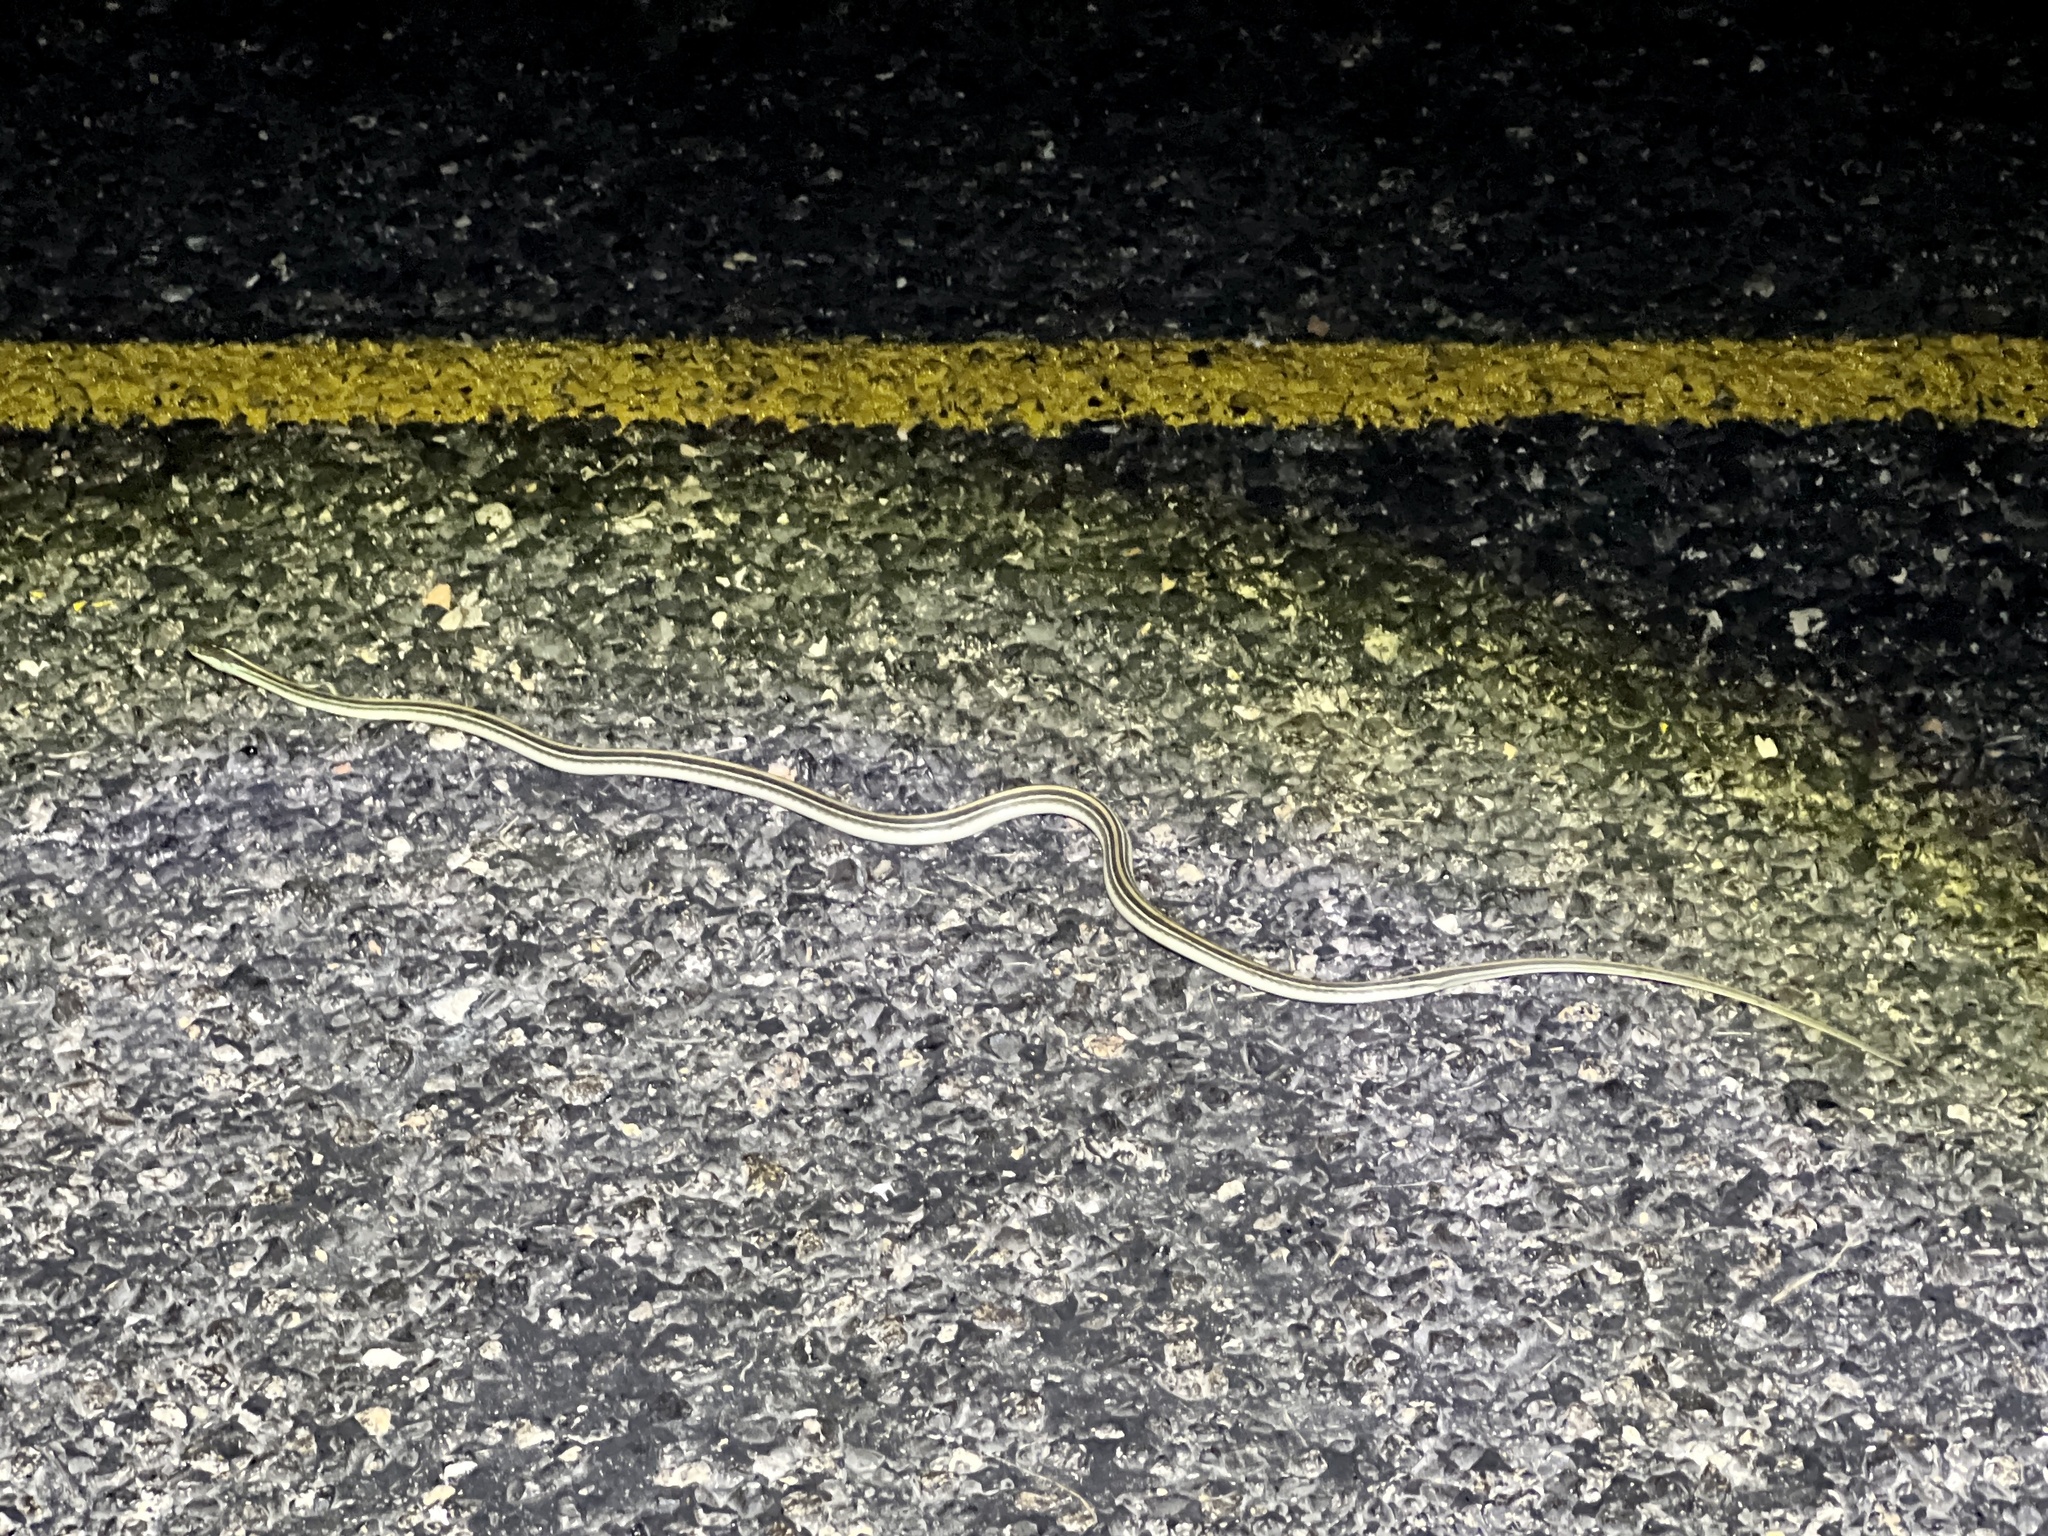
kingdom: Animalia
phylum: Chordata
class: Squamata
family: Colubridae
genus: Thamnophis
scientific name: Thamnophis proximus
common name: Western ribbon snake
